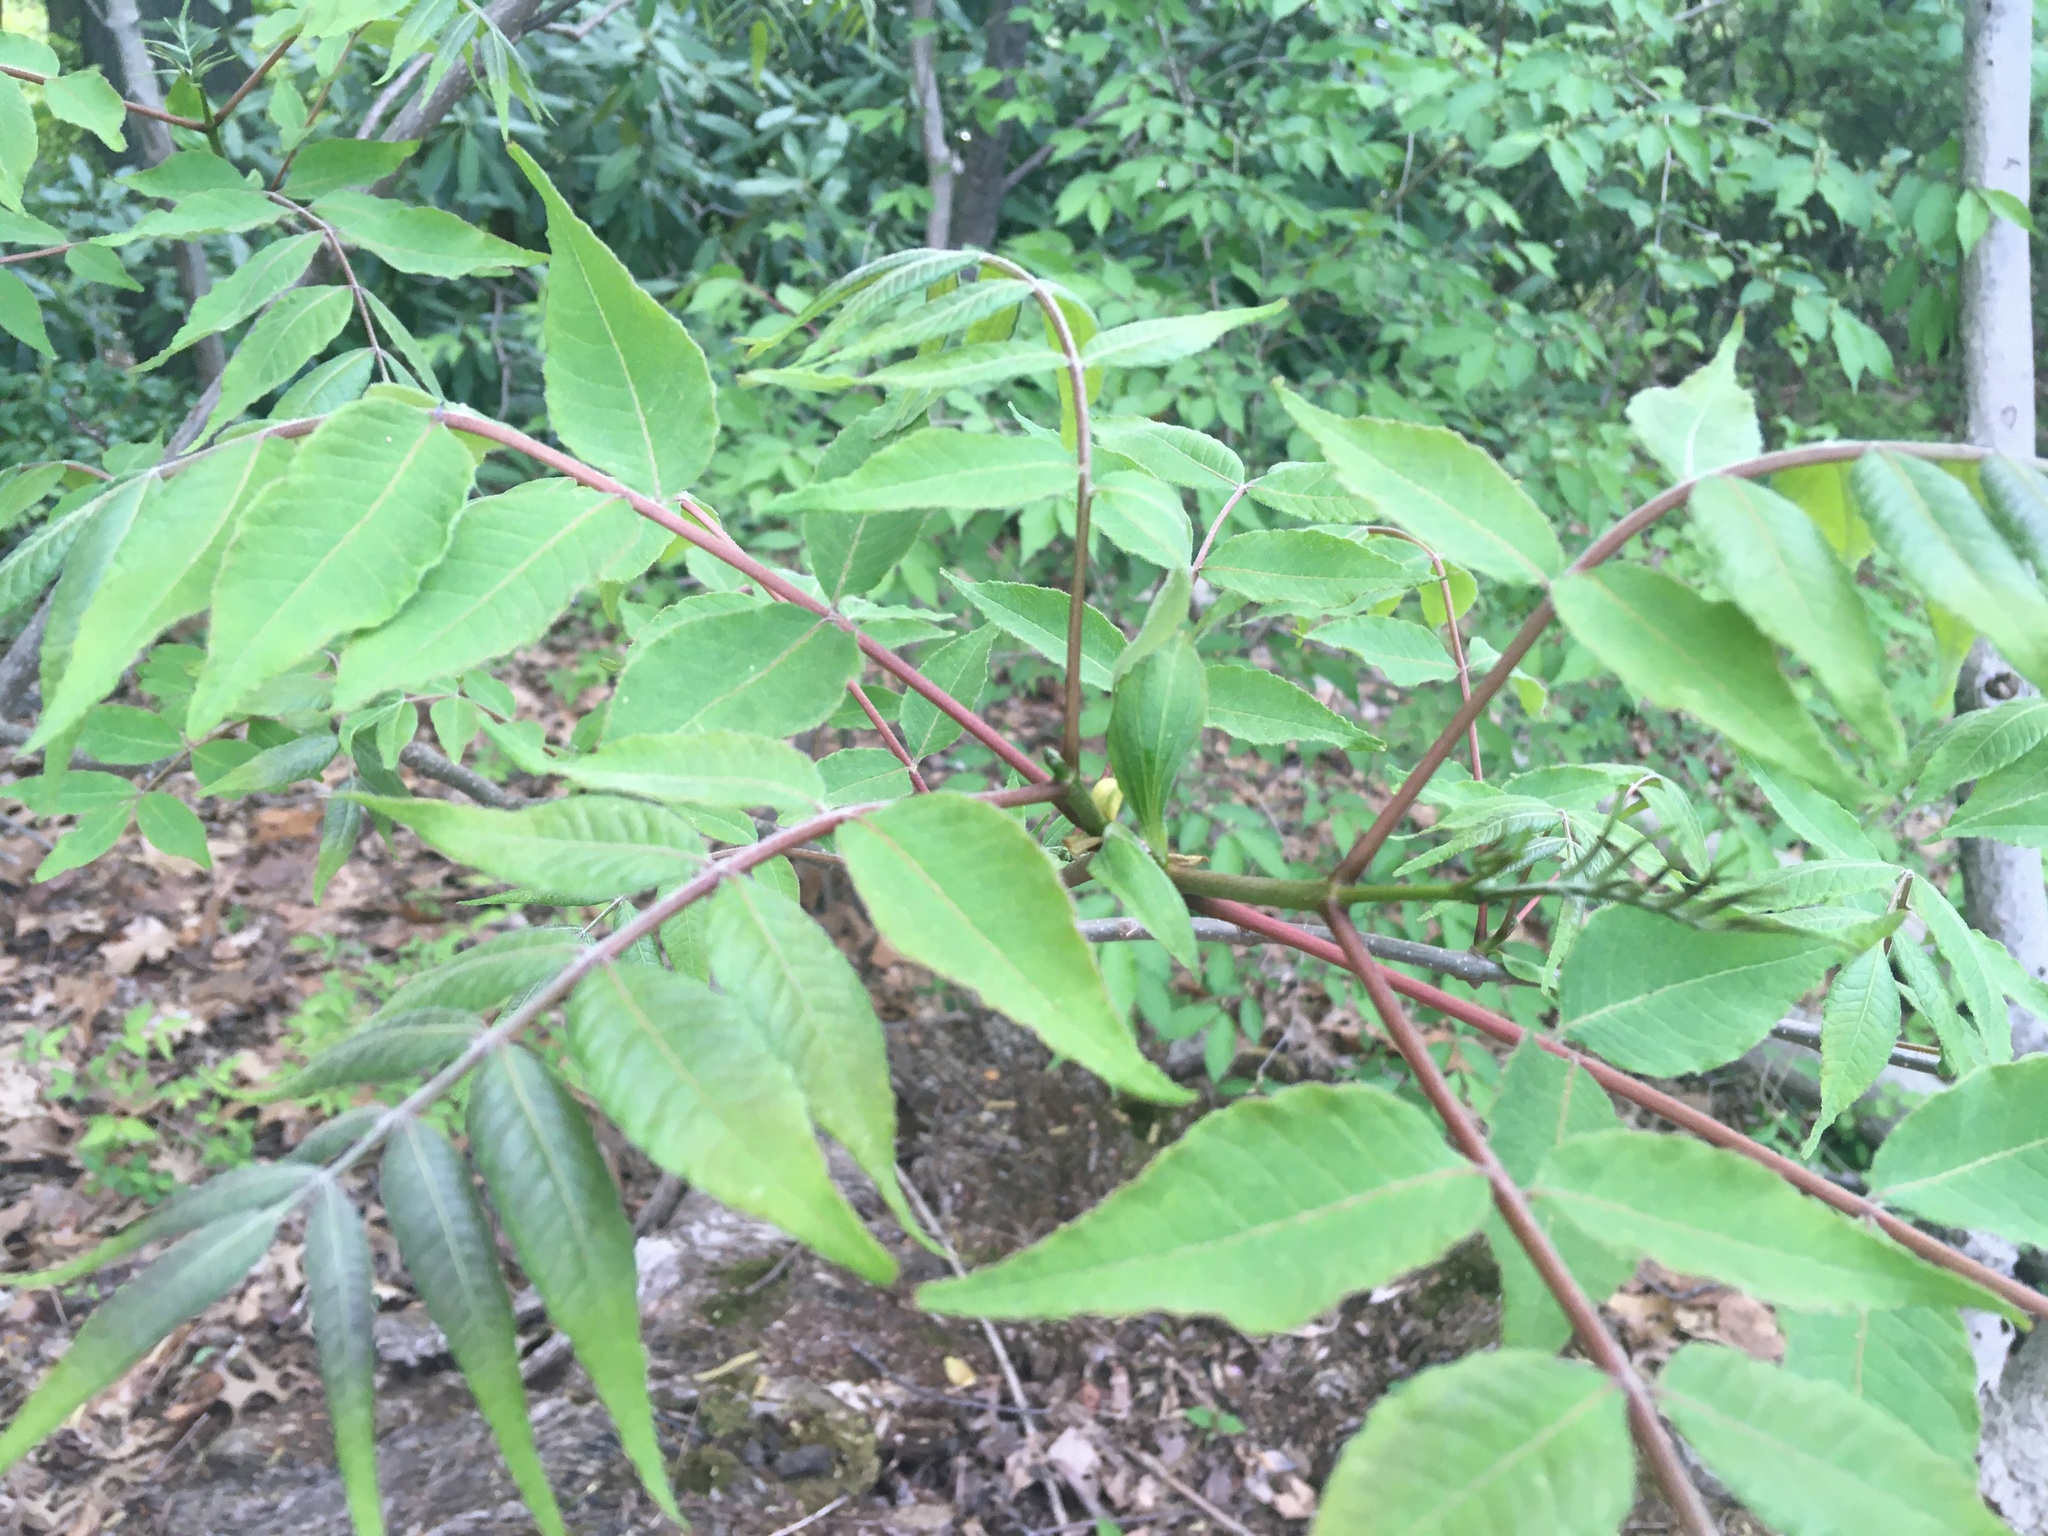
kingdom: Plantae
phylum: Tracheophyta
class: Magnoliopsida
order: Sapindales
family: Rutaceae
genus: Phellodendron
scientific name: Phellodendron amurense
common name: Amur corktree
